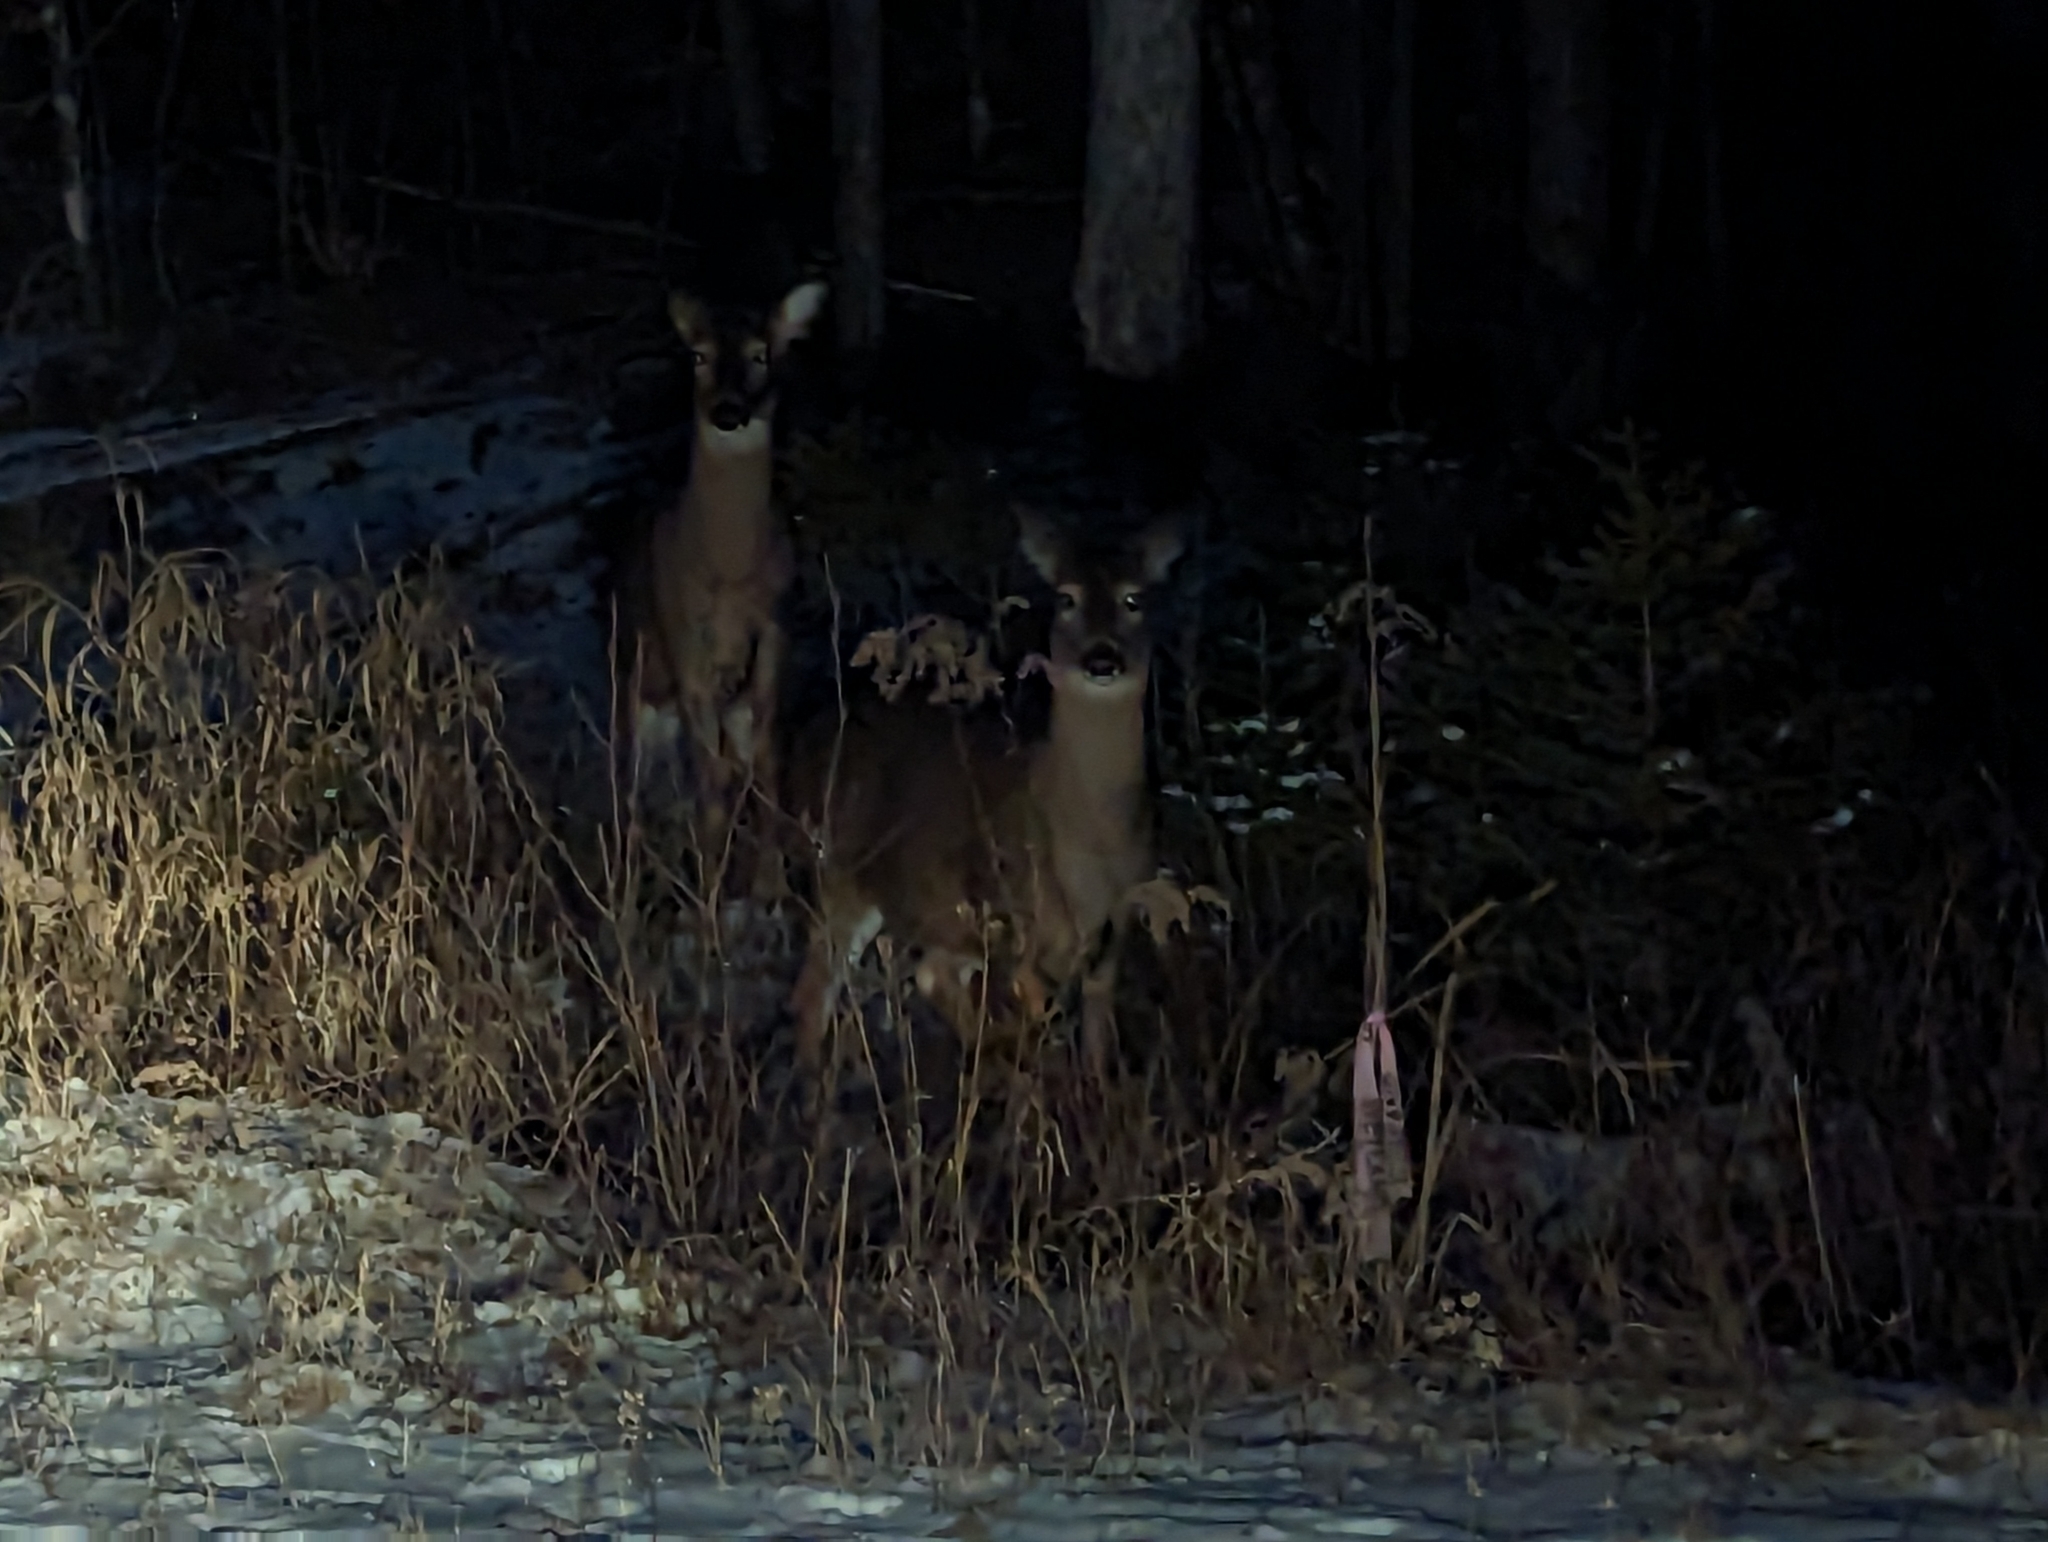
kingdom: Animalia
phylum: Chordata
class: Mammalia
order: Artiodactyla
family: Cervidae
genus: Odocoileus
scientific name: Odocoileus virginianus
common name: White-tailed deer
